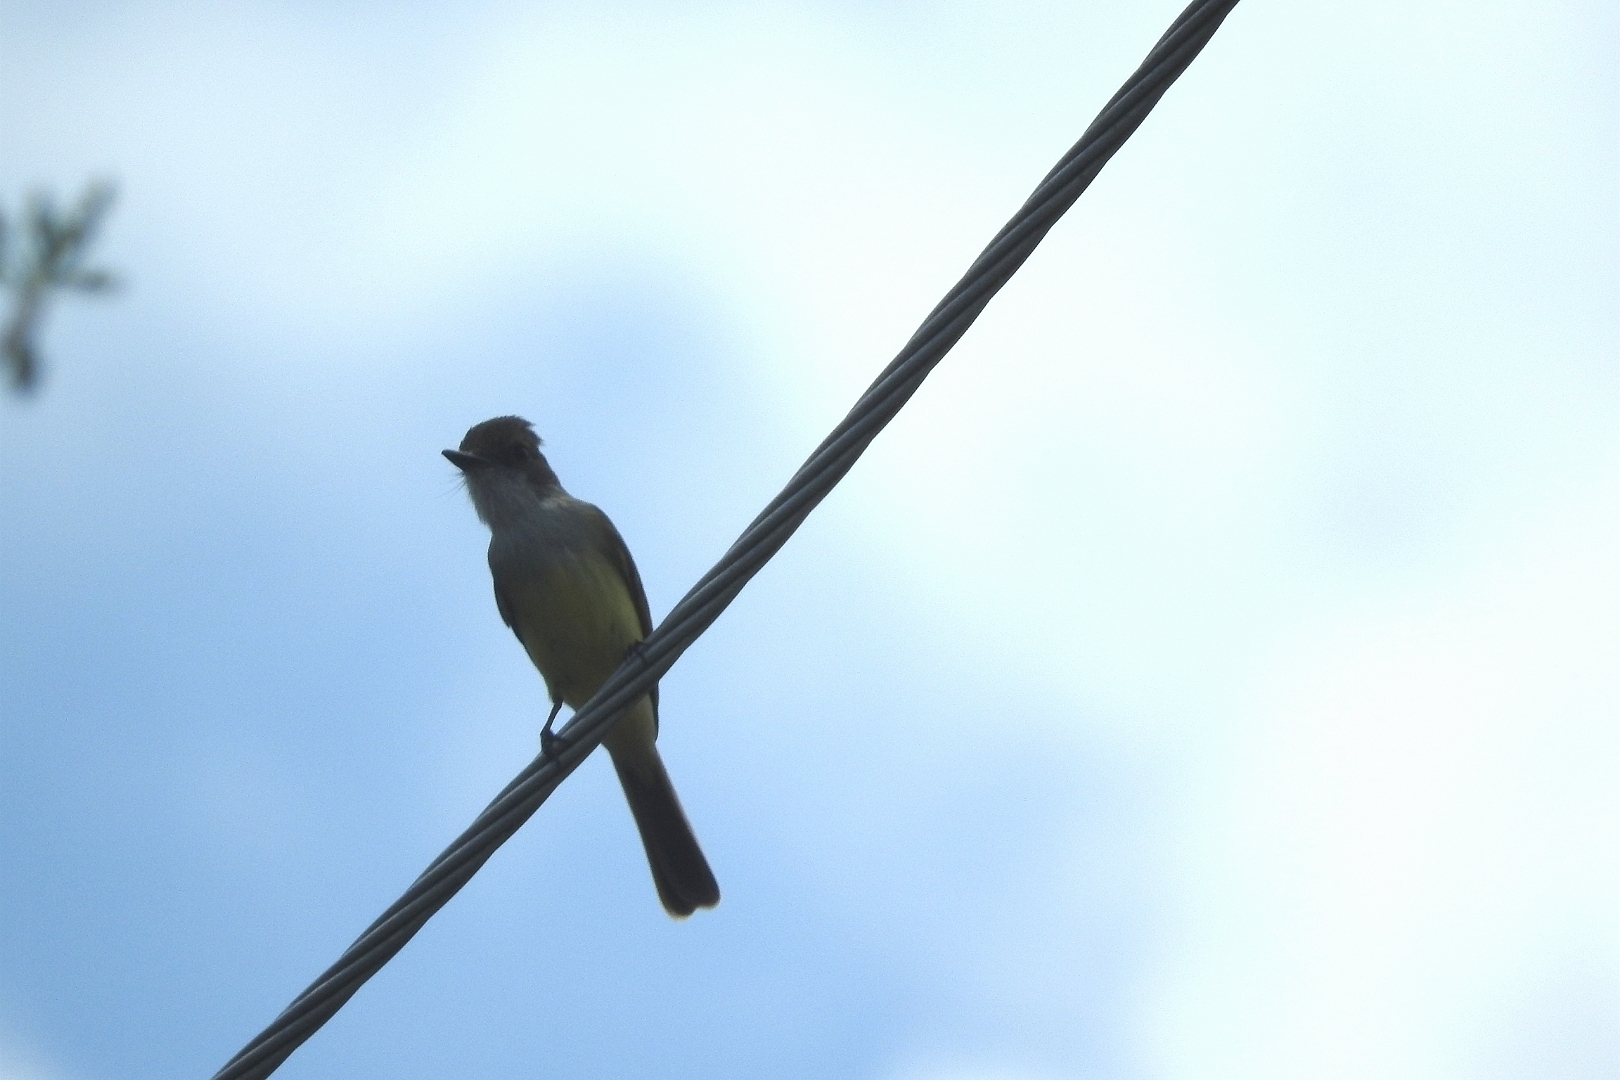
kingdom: Animalia
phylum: Chordata
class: Aves
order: Passeriformes
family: Tyrannidae
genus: Myiarchus
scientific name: Myiarchus tuberculifer
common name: Dusky-capped flycatcher
